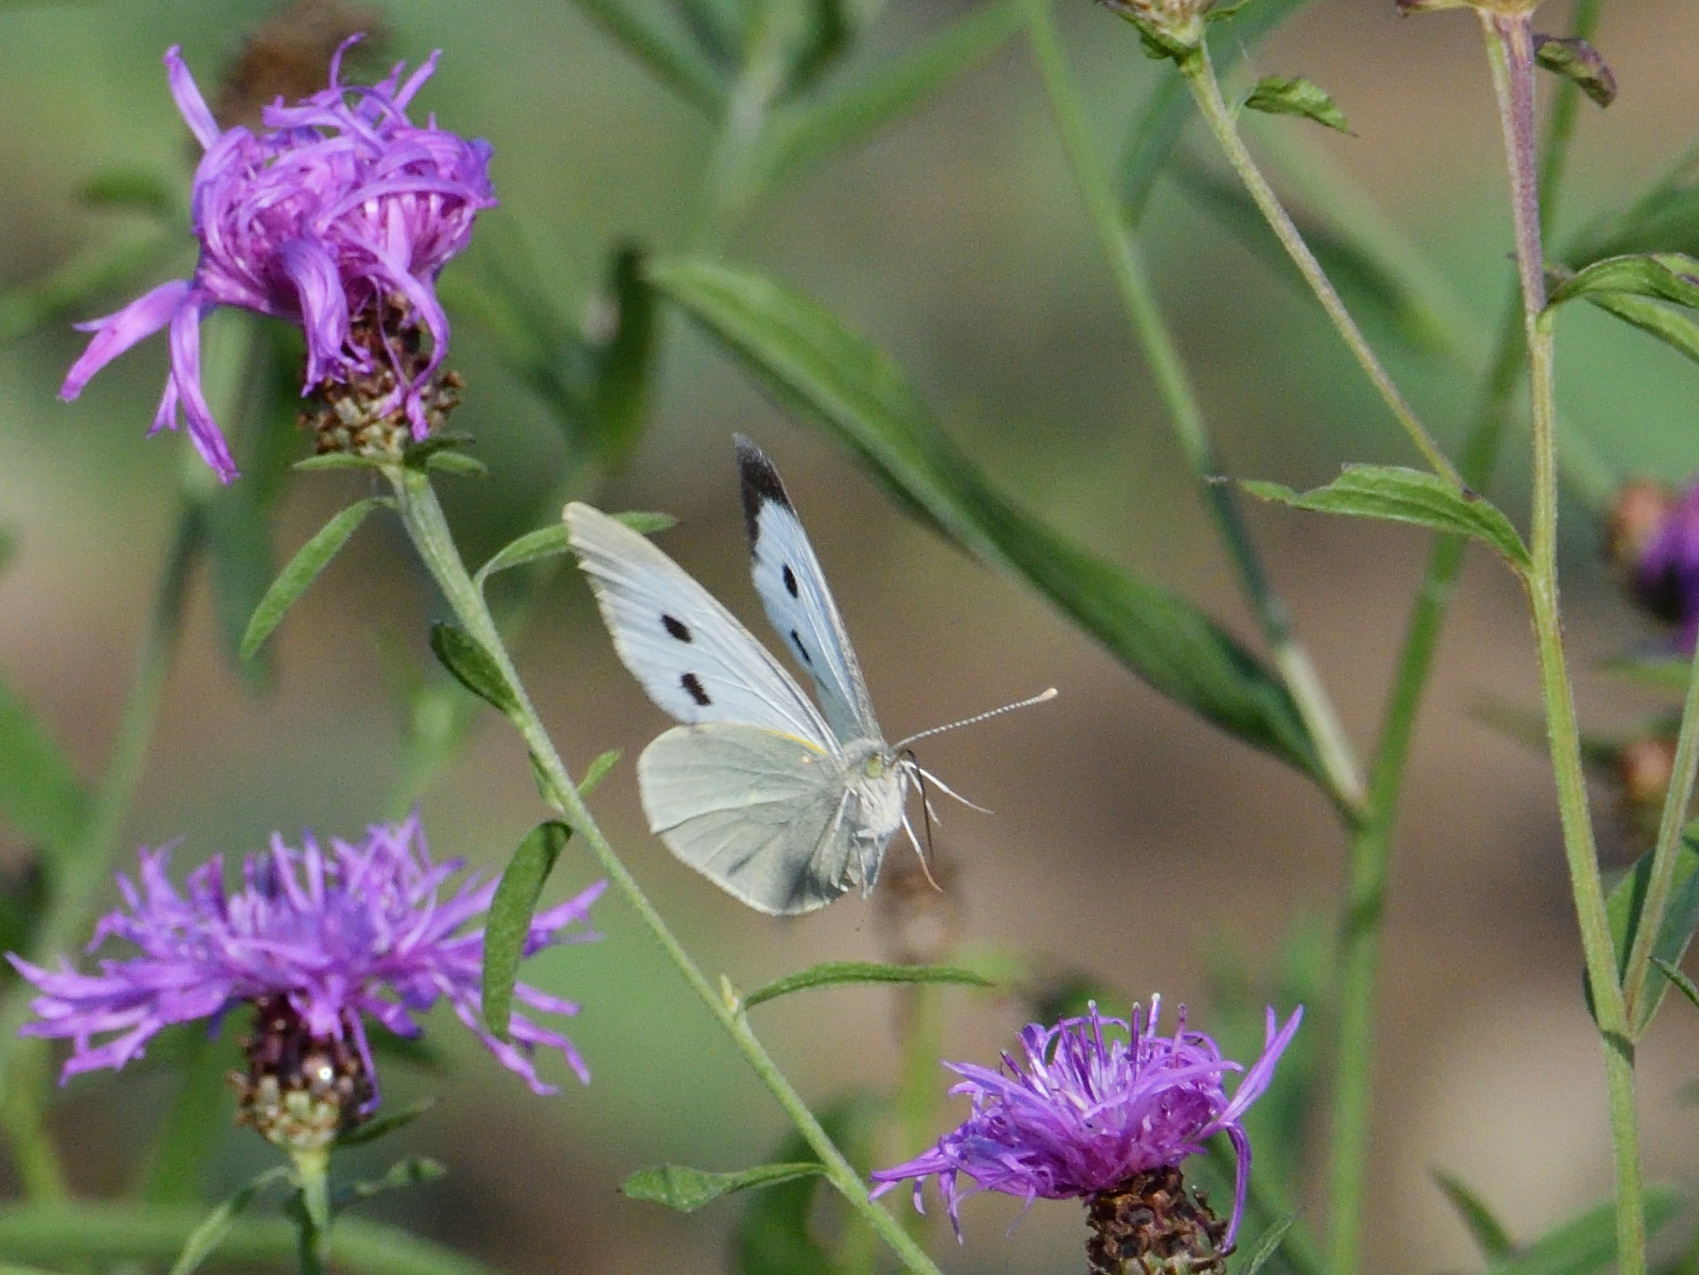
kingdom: Animalia
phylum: Arthropoda
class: Insecta
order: Lepidoptera
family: Pieridae
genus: Pieris
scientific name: Pieris brassicae
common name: Large white
